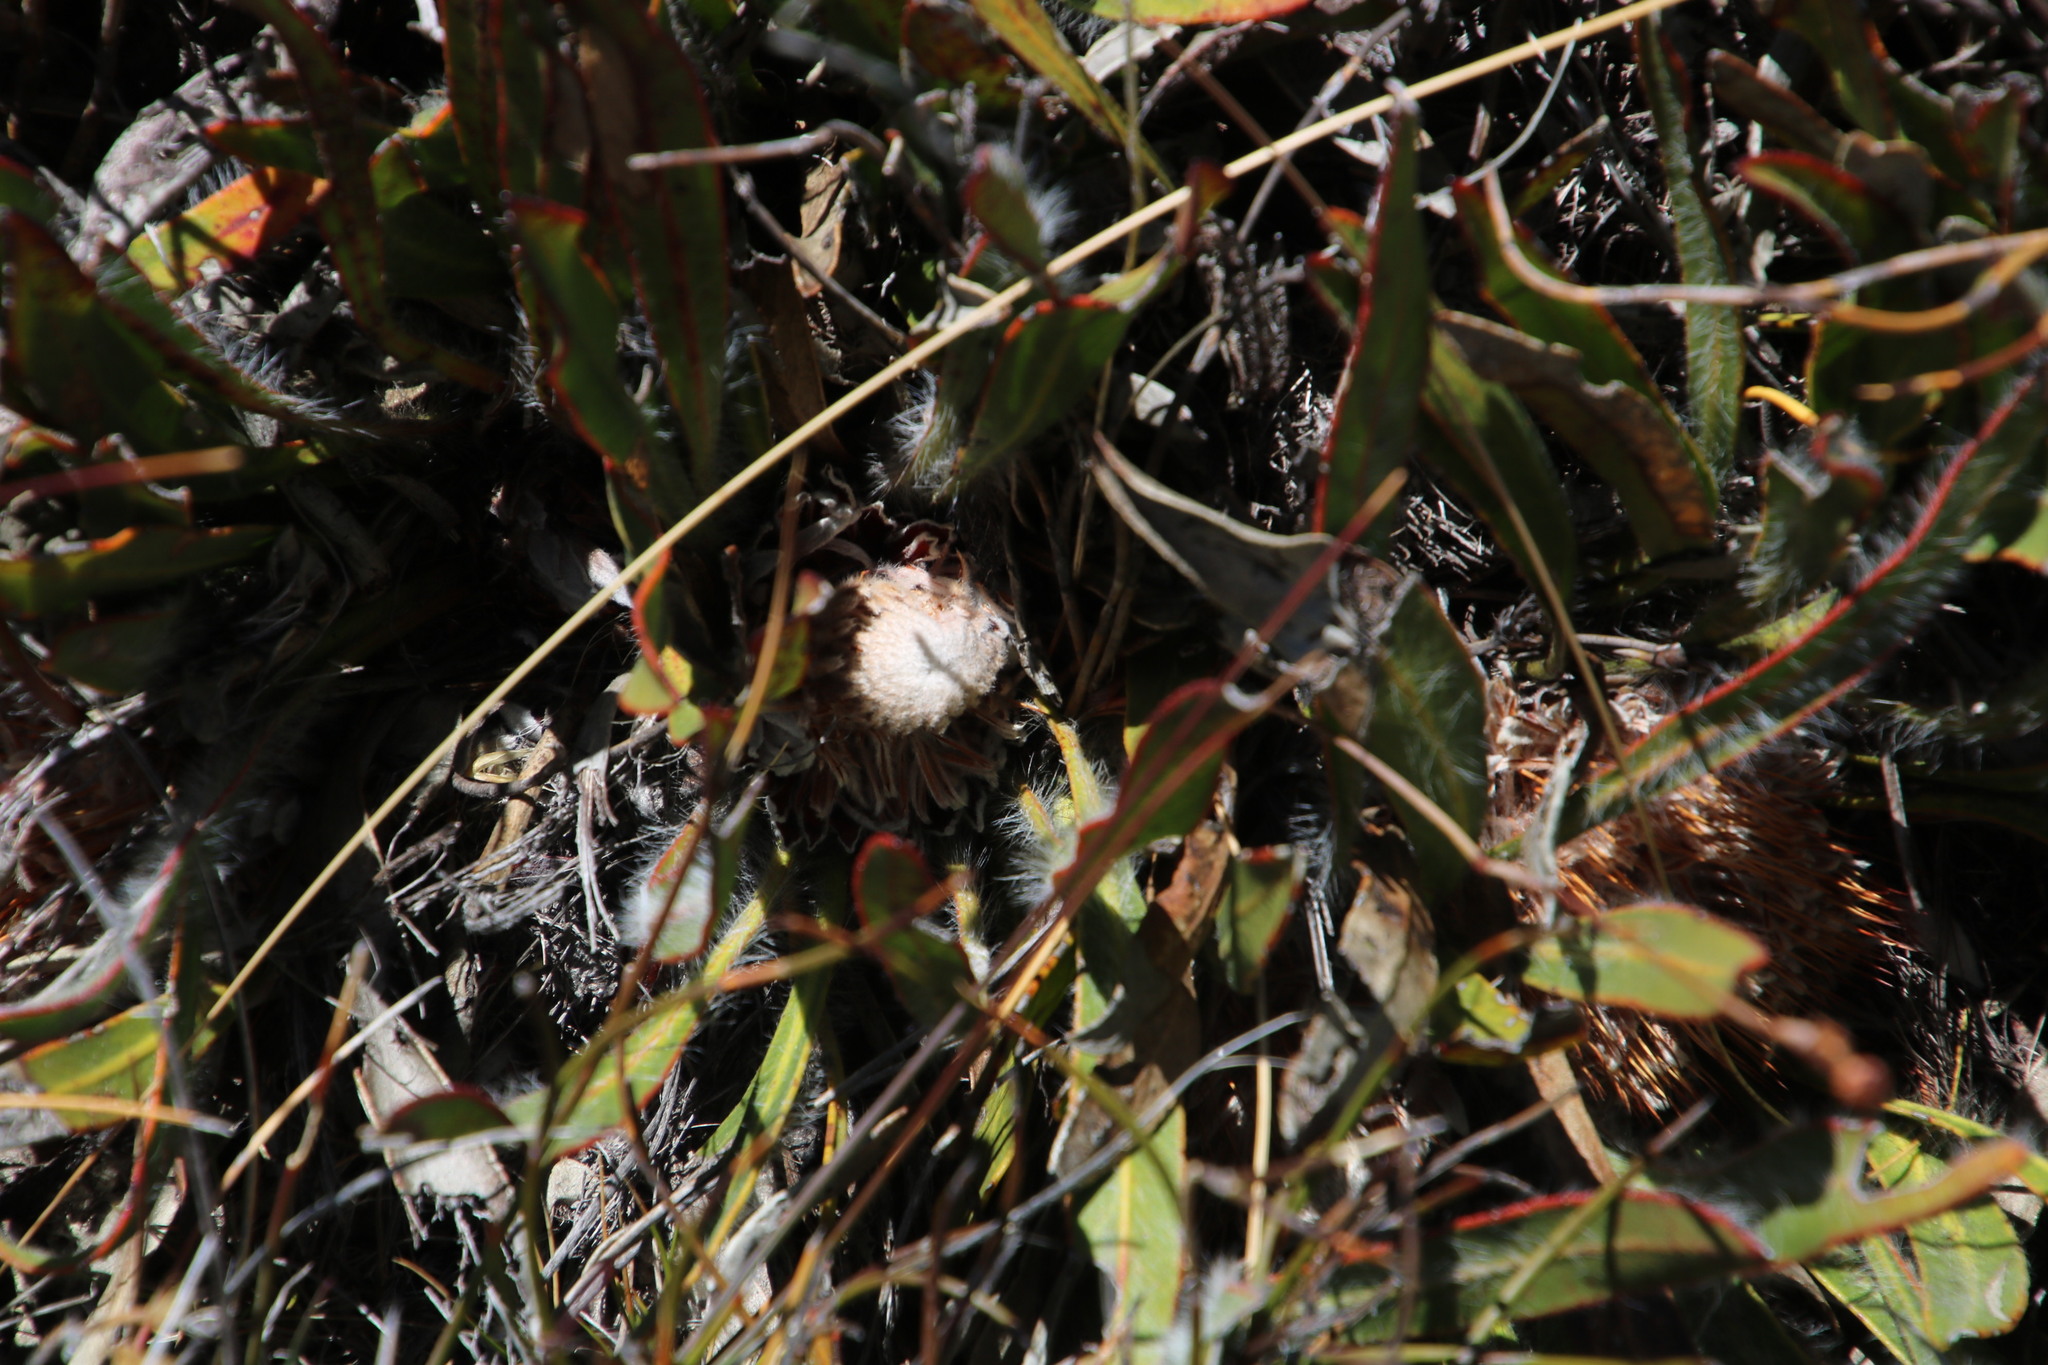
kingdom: Plantae
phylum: Tracheophyta
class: Magnoliopsida
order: Proteales
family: Proteaceae
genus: Protea
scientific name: Protea scabriuscula
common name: Hoary sugarbush
